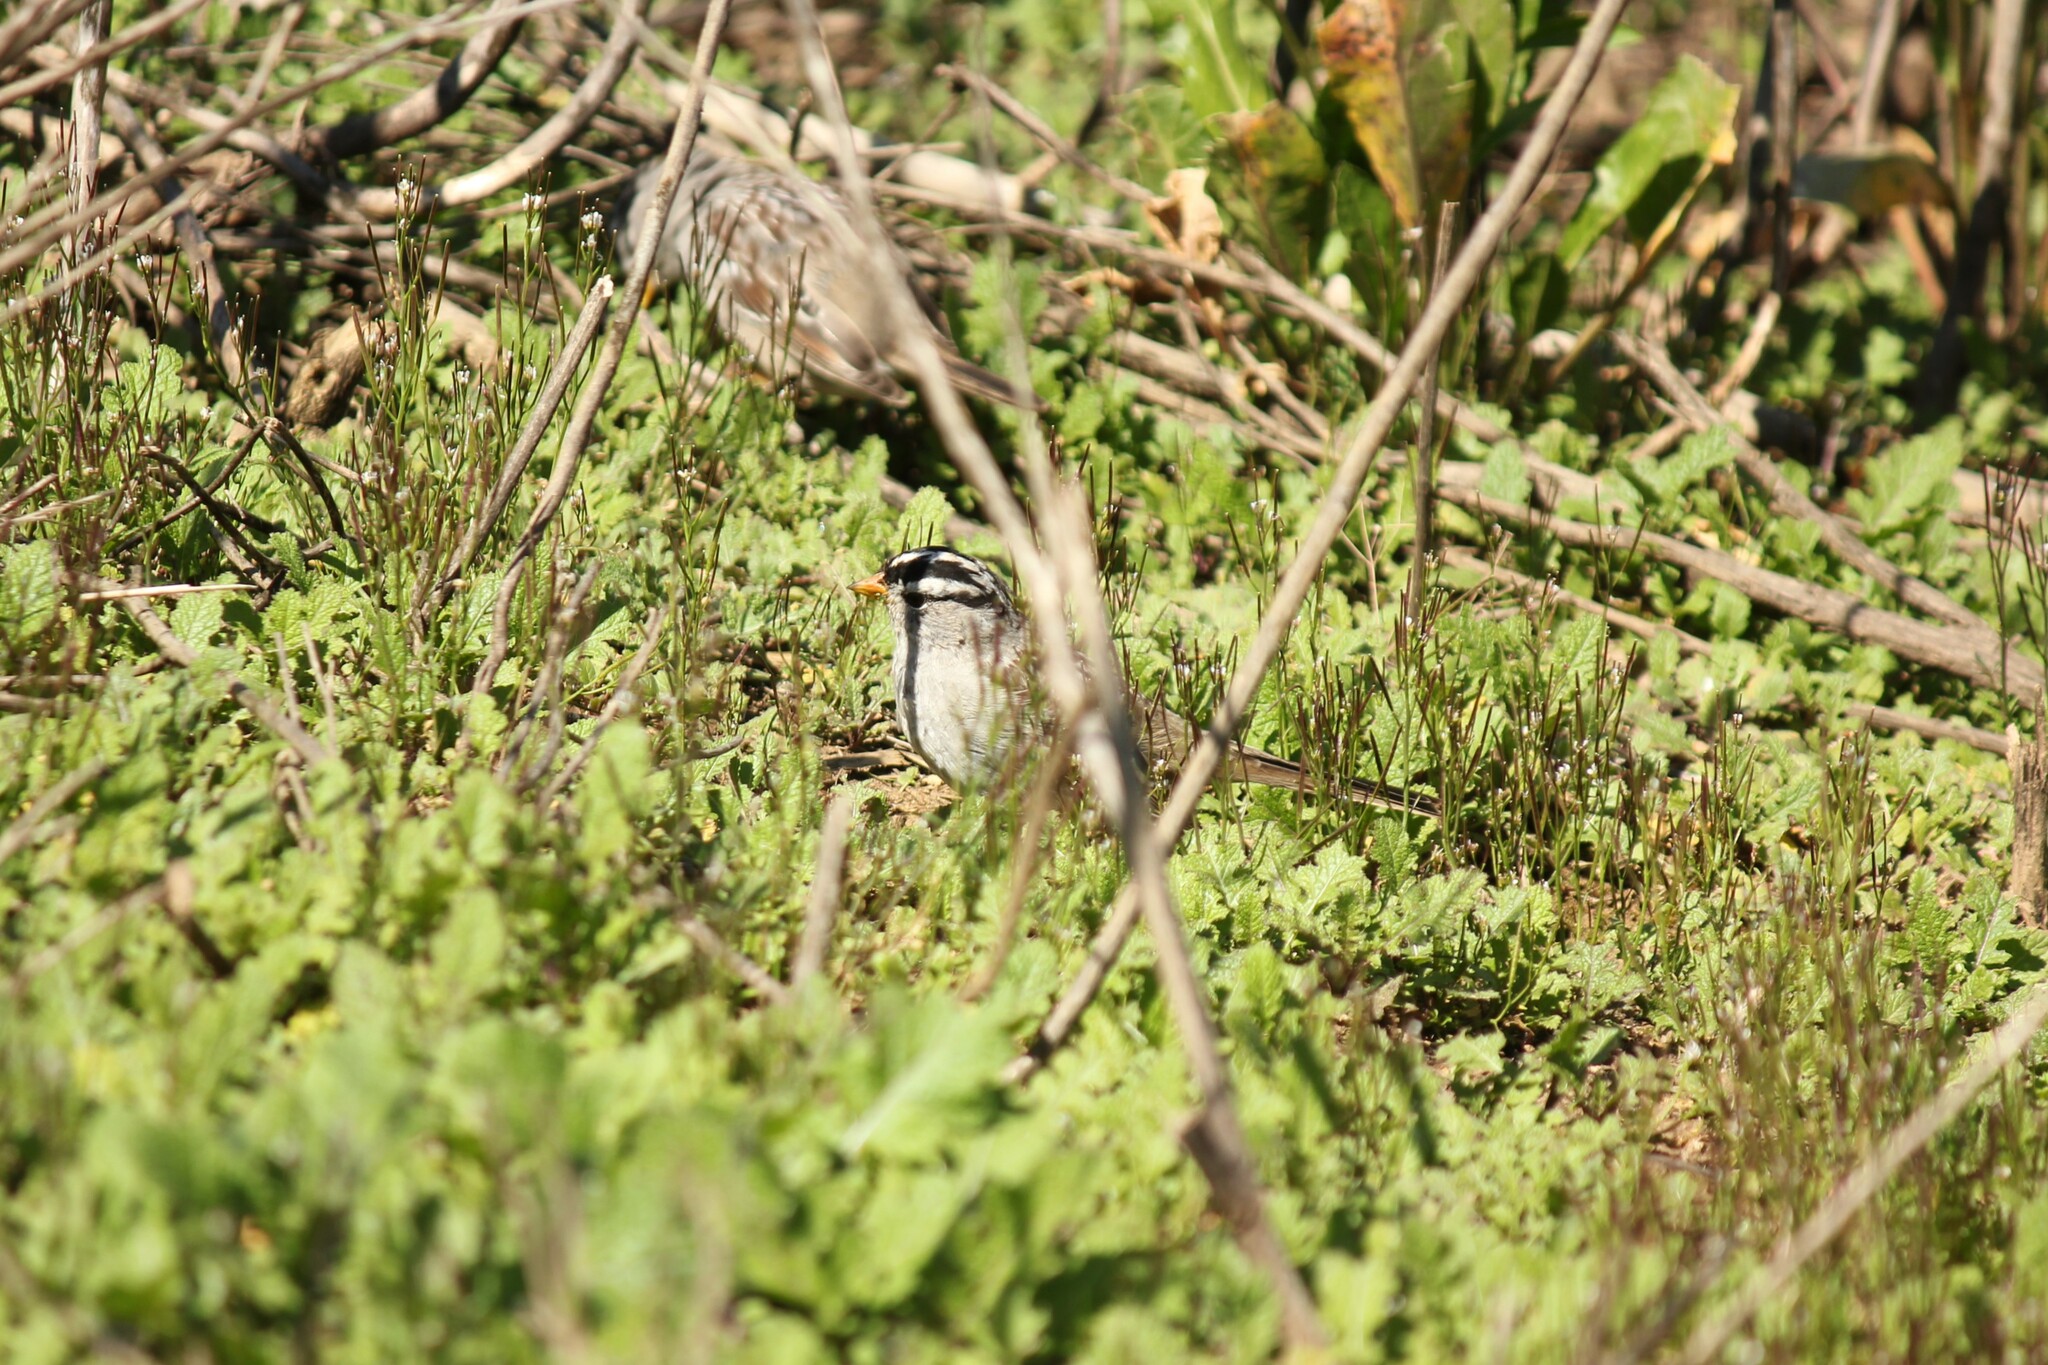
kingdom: Animalia
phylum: Chordata
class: Aves
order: Passeriformes
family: Passerellidae
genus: Zonotrichia
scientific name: Zonotrichia leucophrys
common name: White-crowned sparrow
